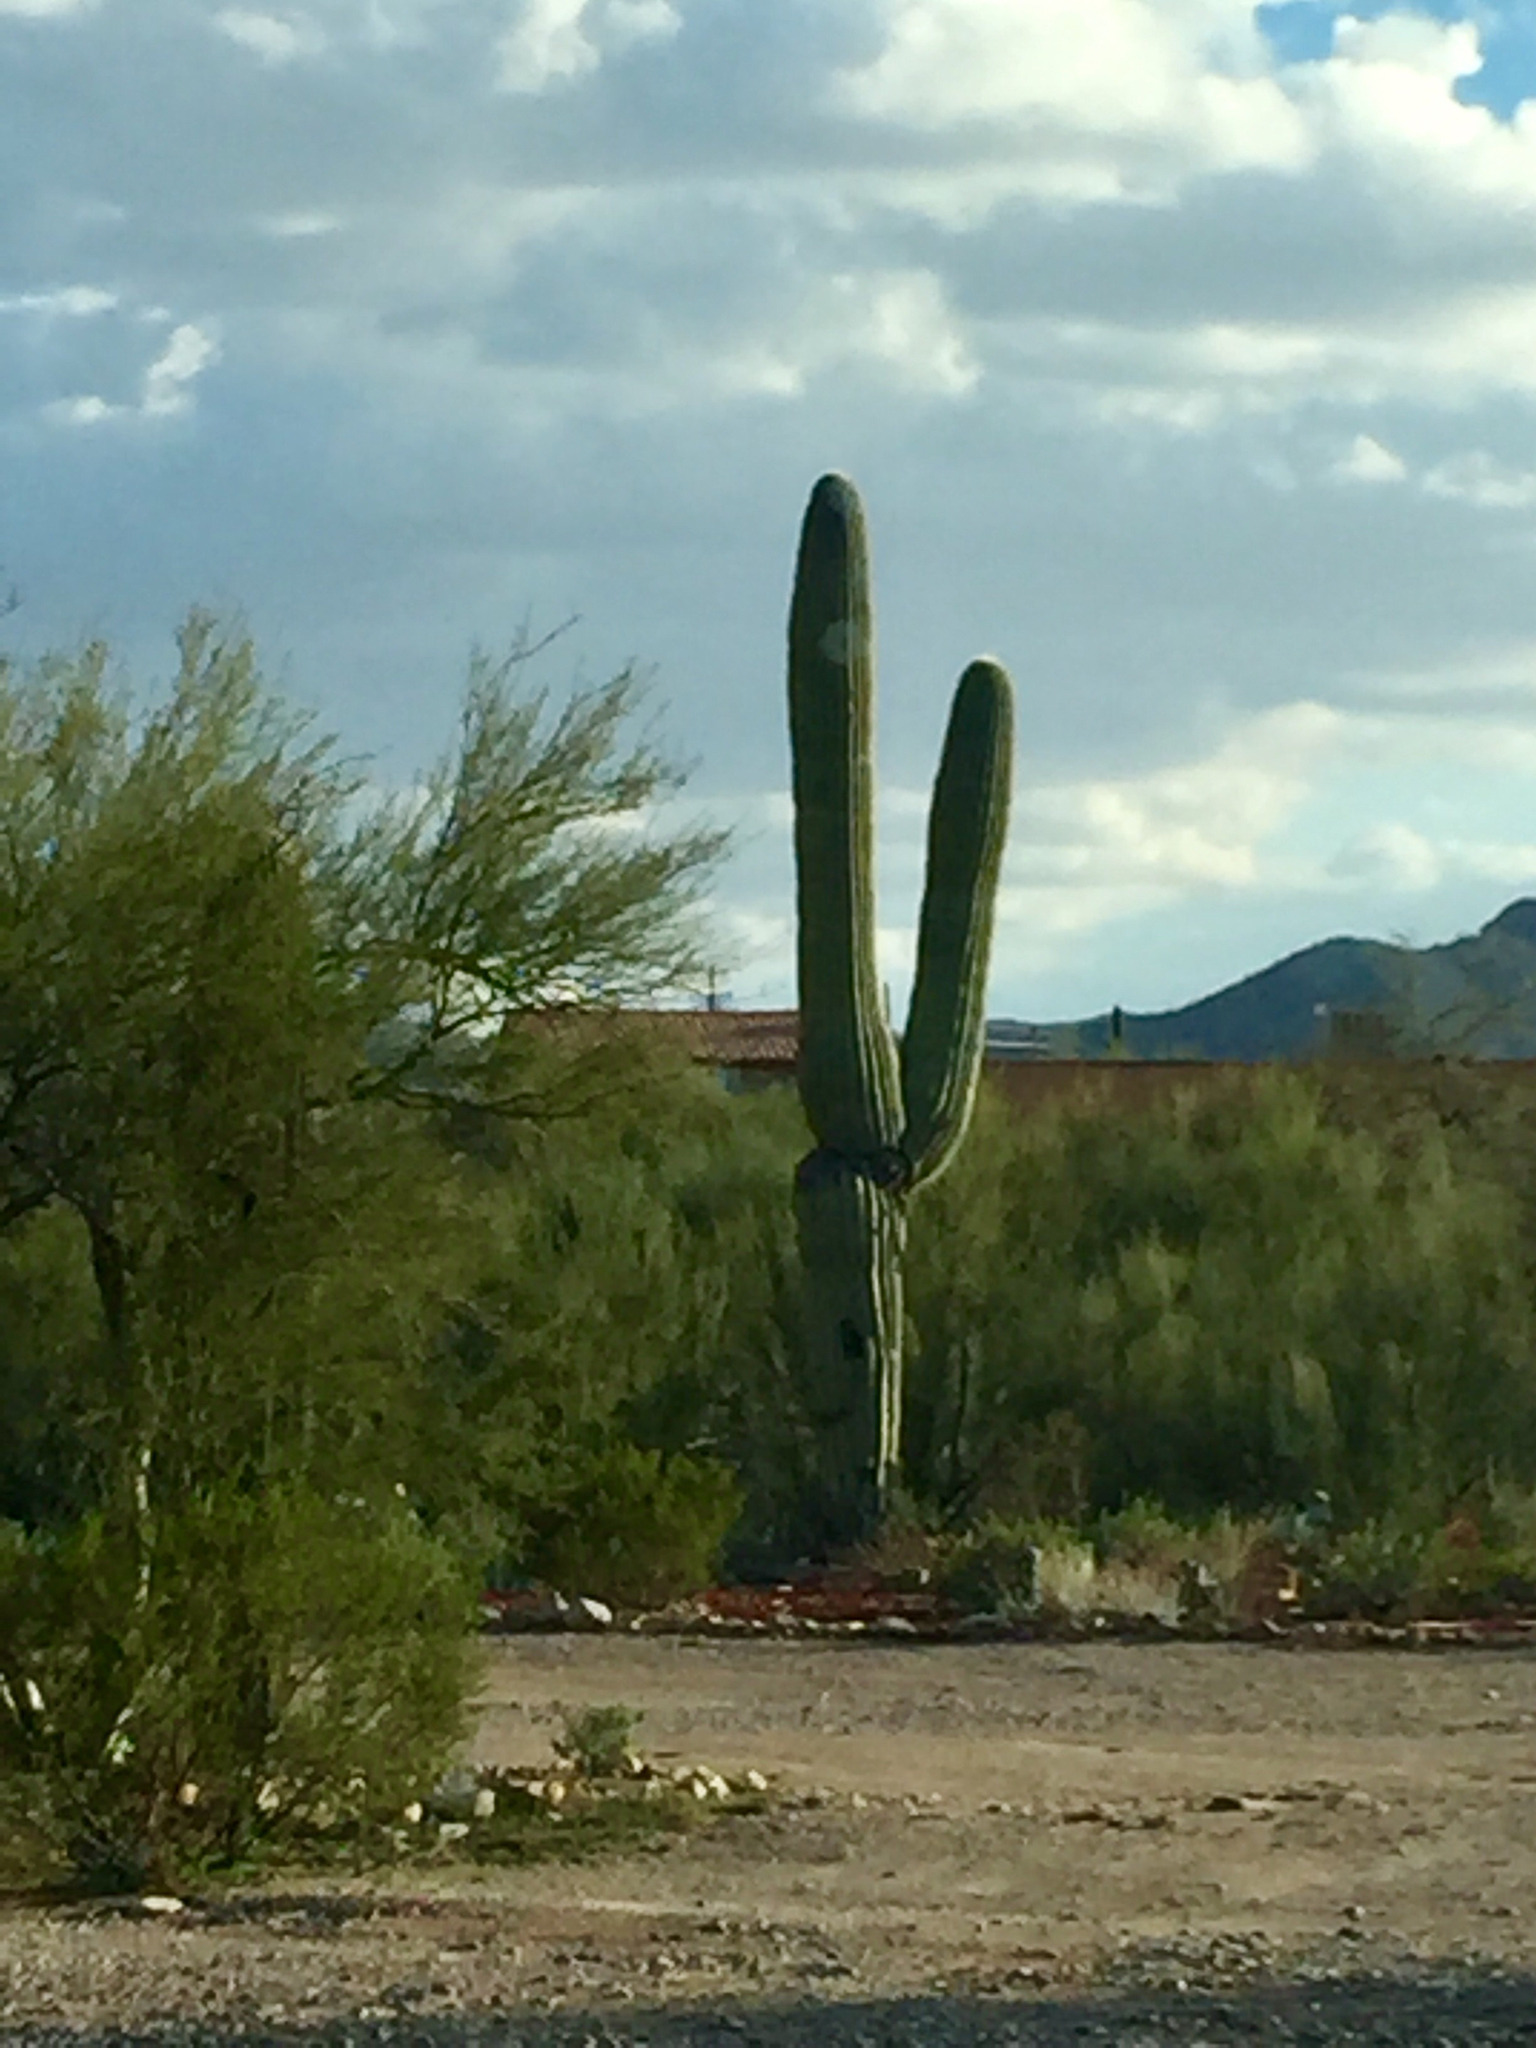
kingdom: Plantae
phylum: Tracheophyta
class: Magnoliopsida
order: Caryophyllales
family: Cactaceae
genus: Carnegiea
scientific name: Carnegiea gigantea
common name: Saguaro
